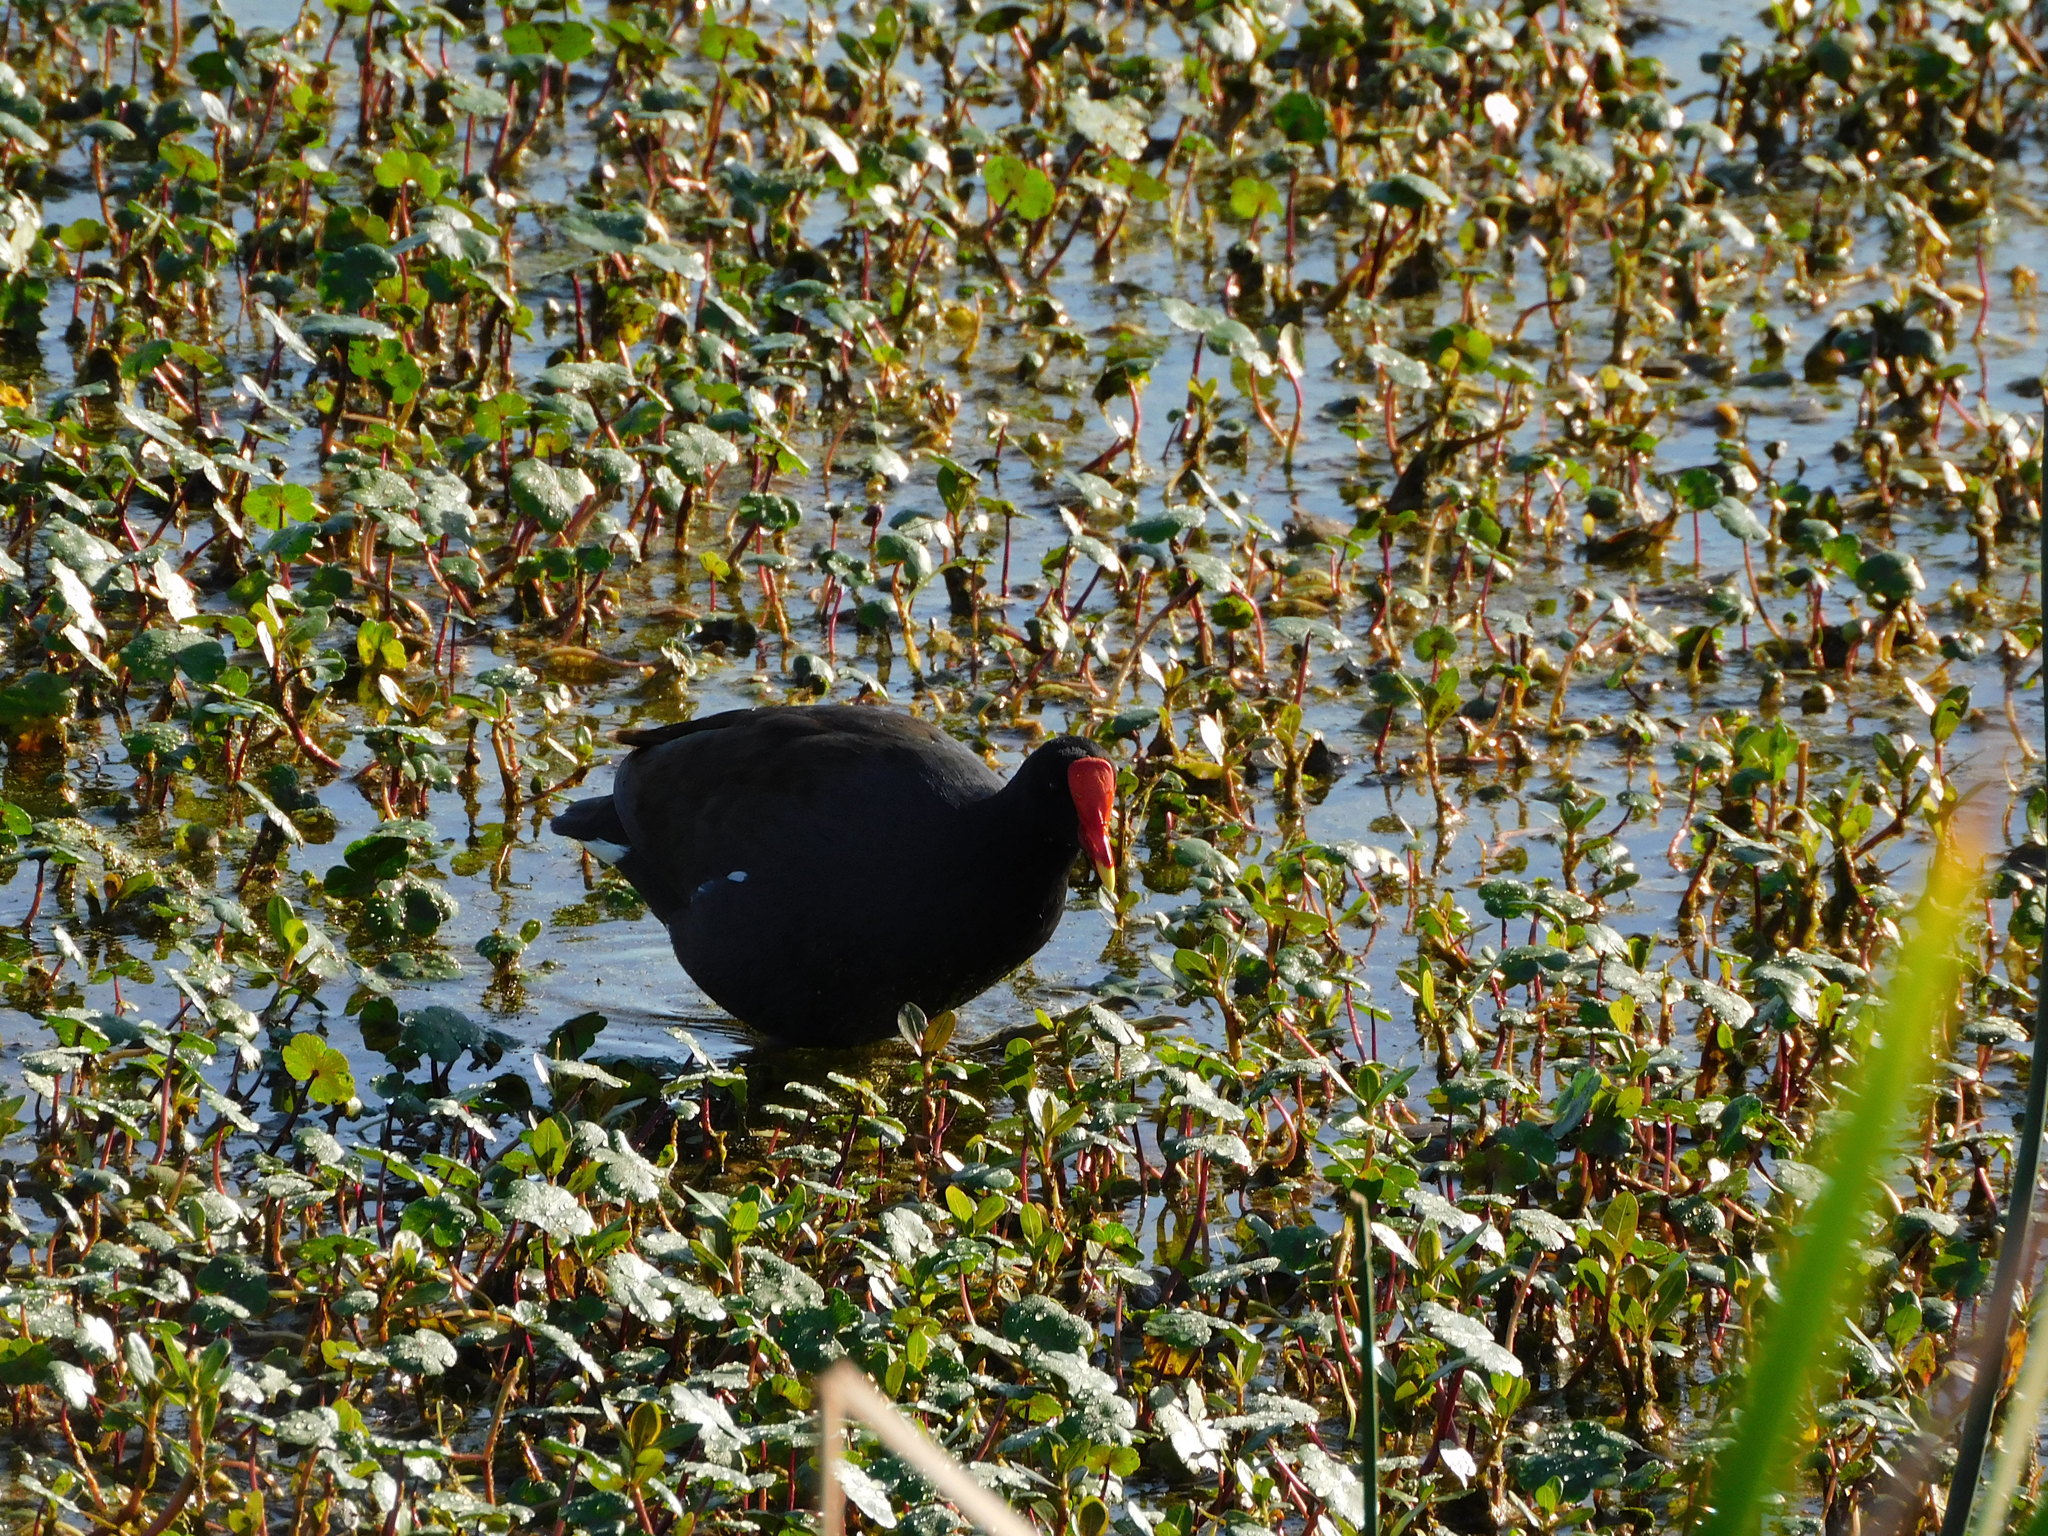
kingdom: Animalia
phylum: Chordata
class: Aves
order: Gruiformes
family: Rallidae
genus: Gallinula
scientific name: Gallinula chloropus
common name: Common moorhen
